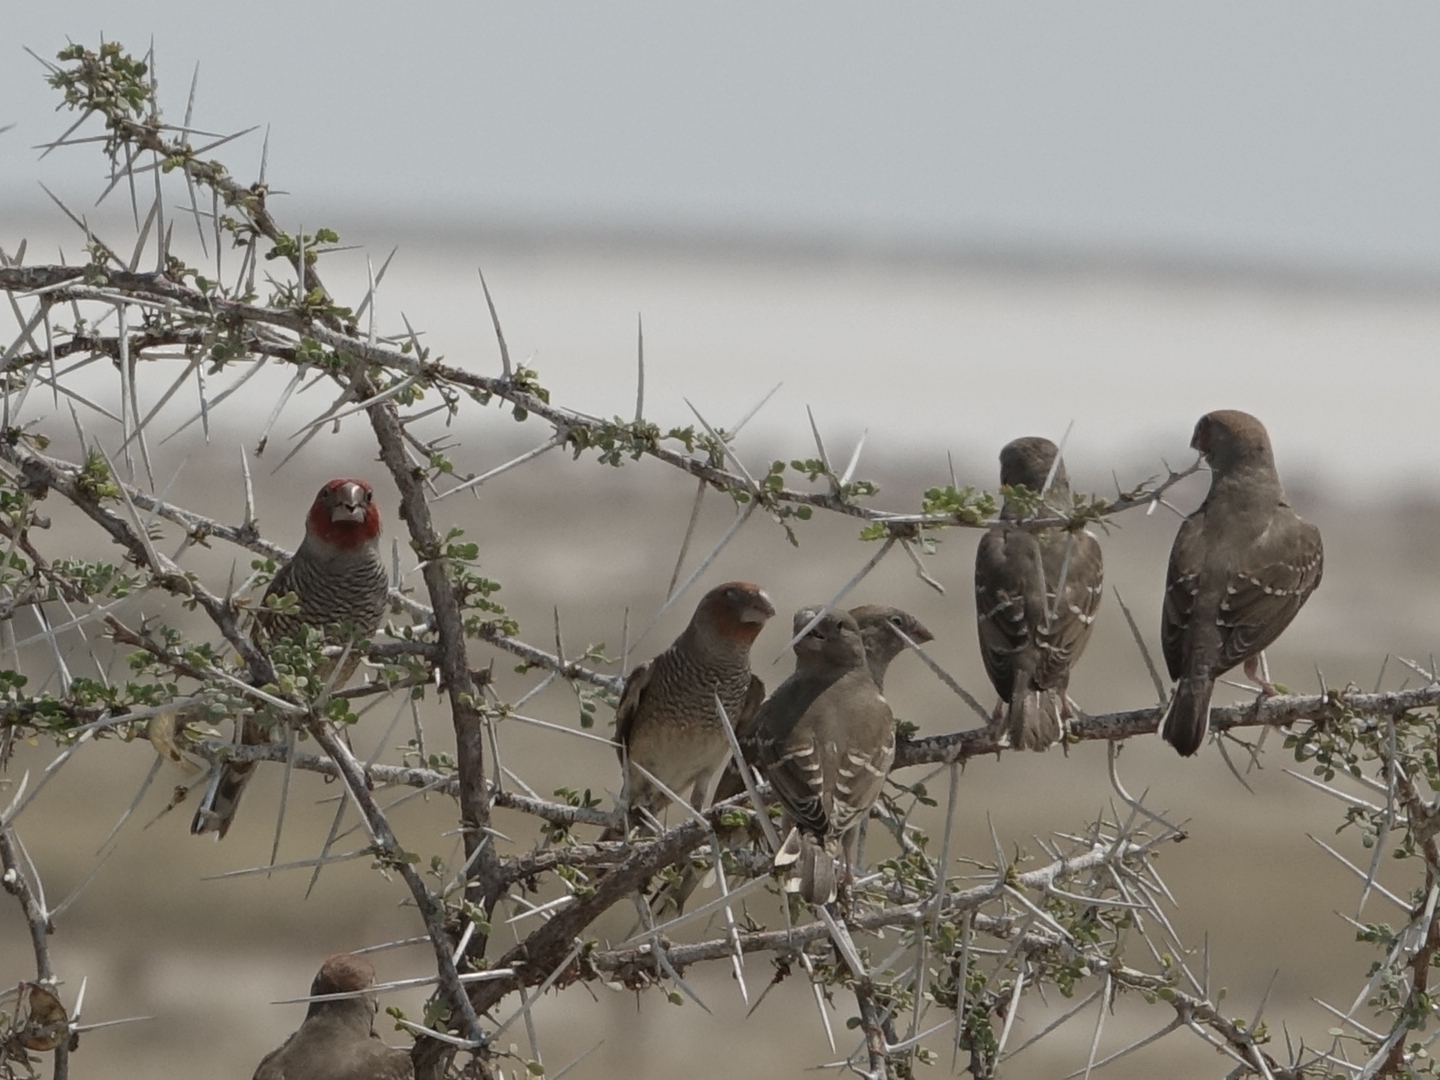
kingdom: Animalia
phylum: Chordata
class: Aves
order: Passeriformes
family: Estrildidae
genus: Amadina
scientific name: Amadina erythrocephala
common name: Red-headed finch
